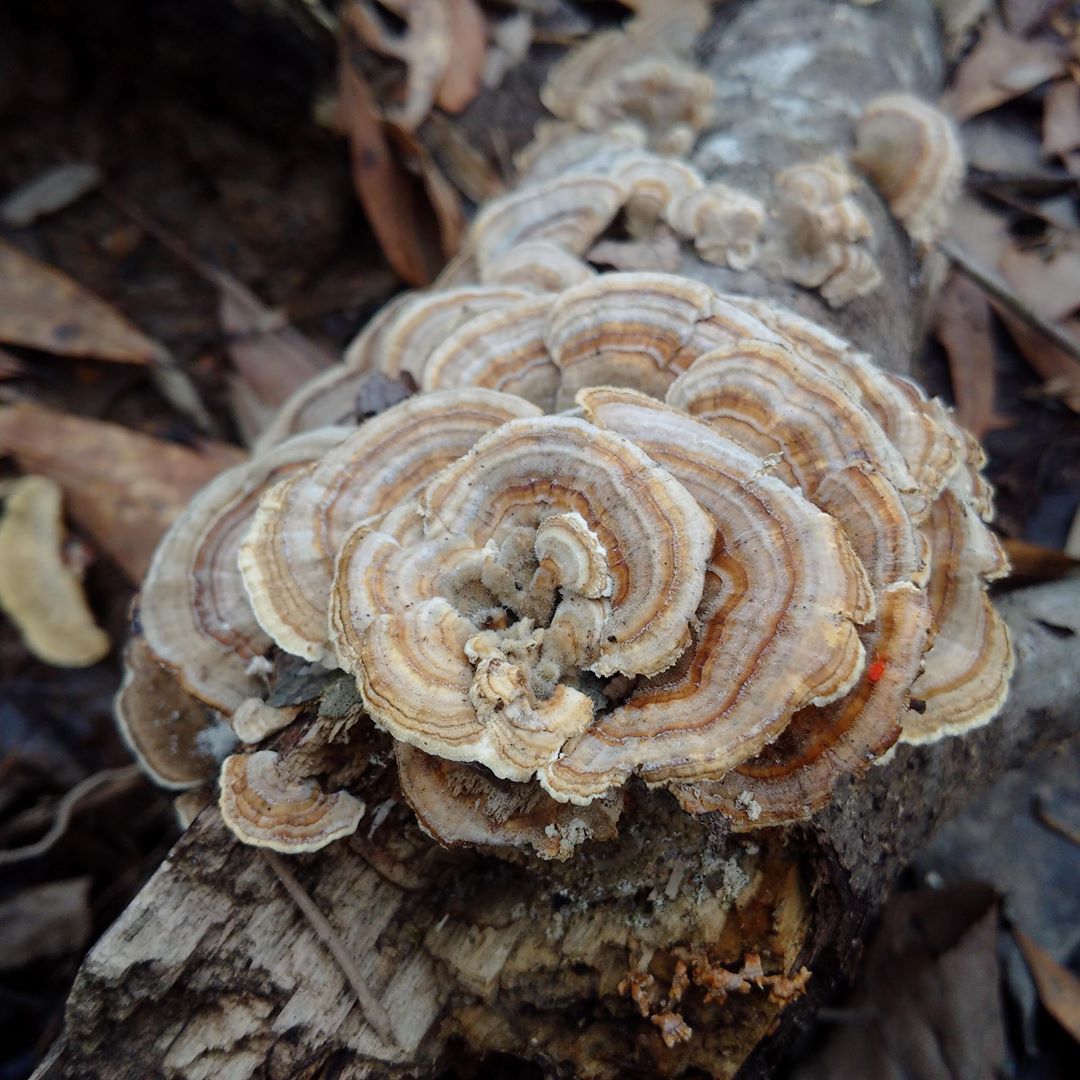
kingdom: Fungi
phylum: Basidiomycota
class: Agaricomycetes
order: Polyporales
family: Polyporaceae
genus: Trametes
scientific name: Trametes versicolor
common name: Turkeytail
